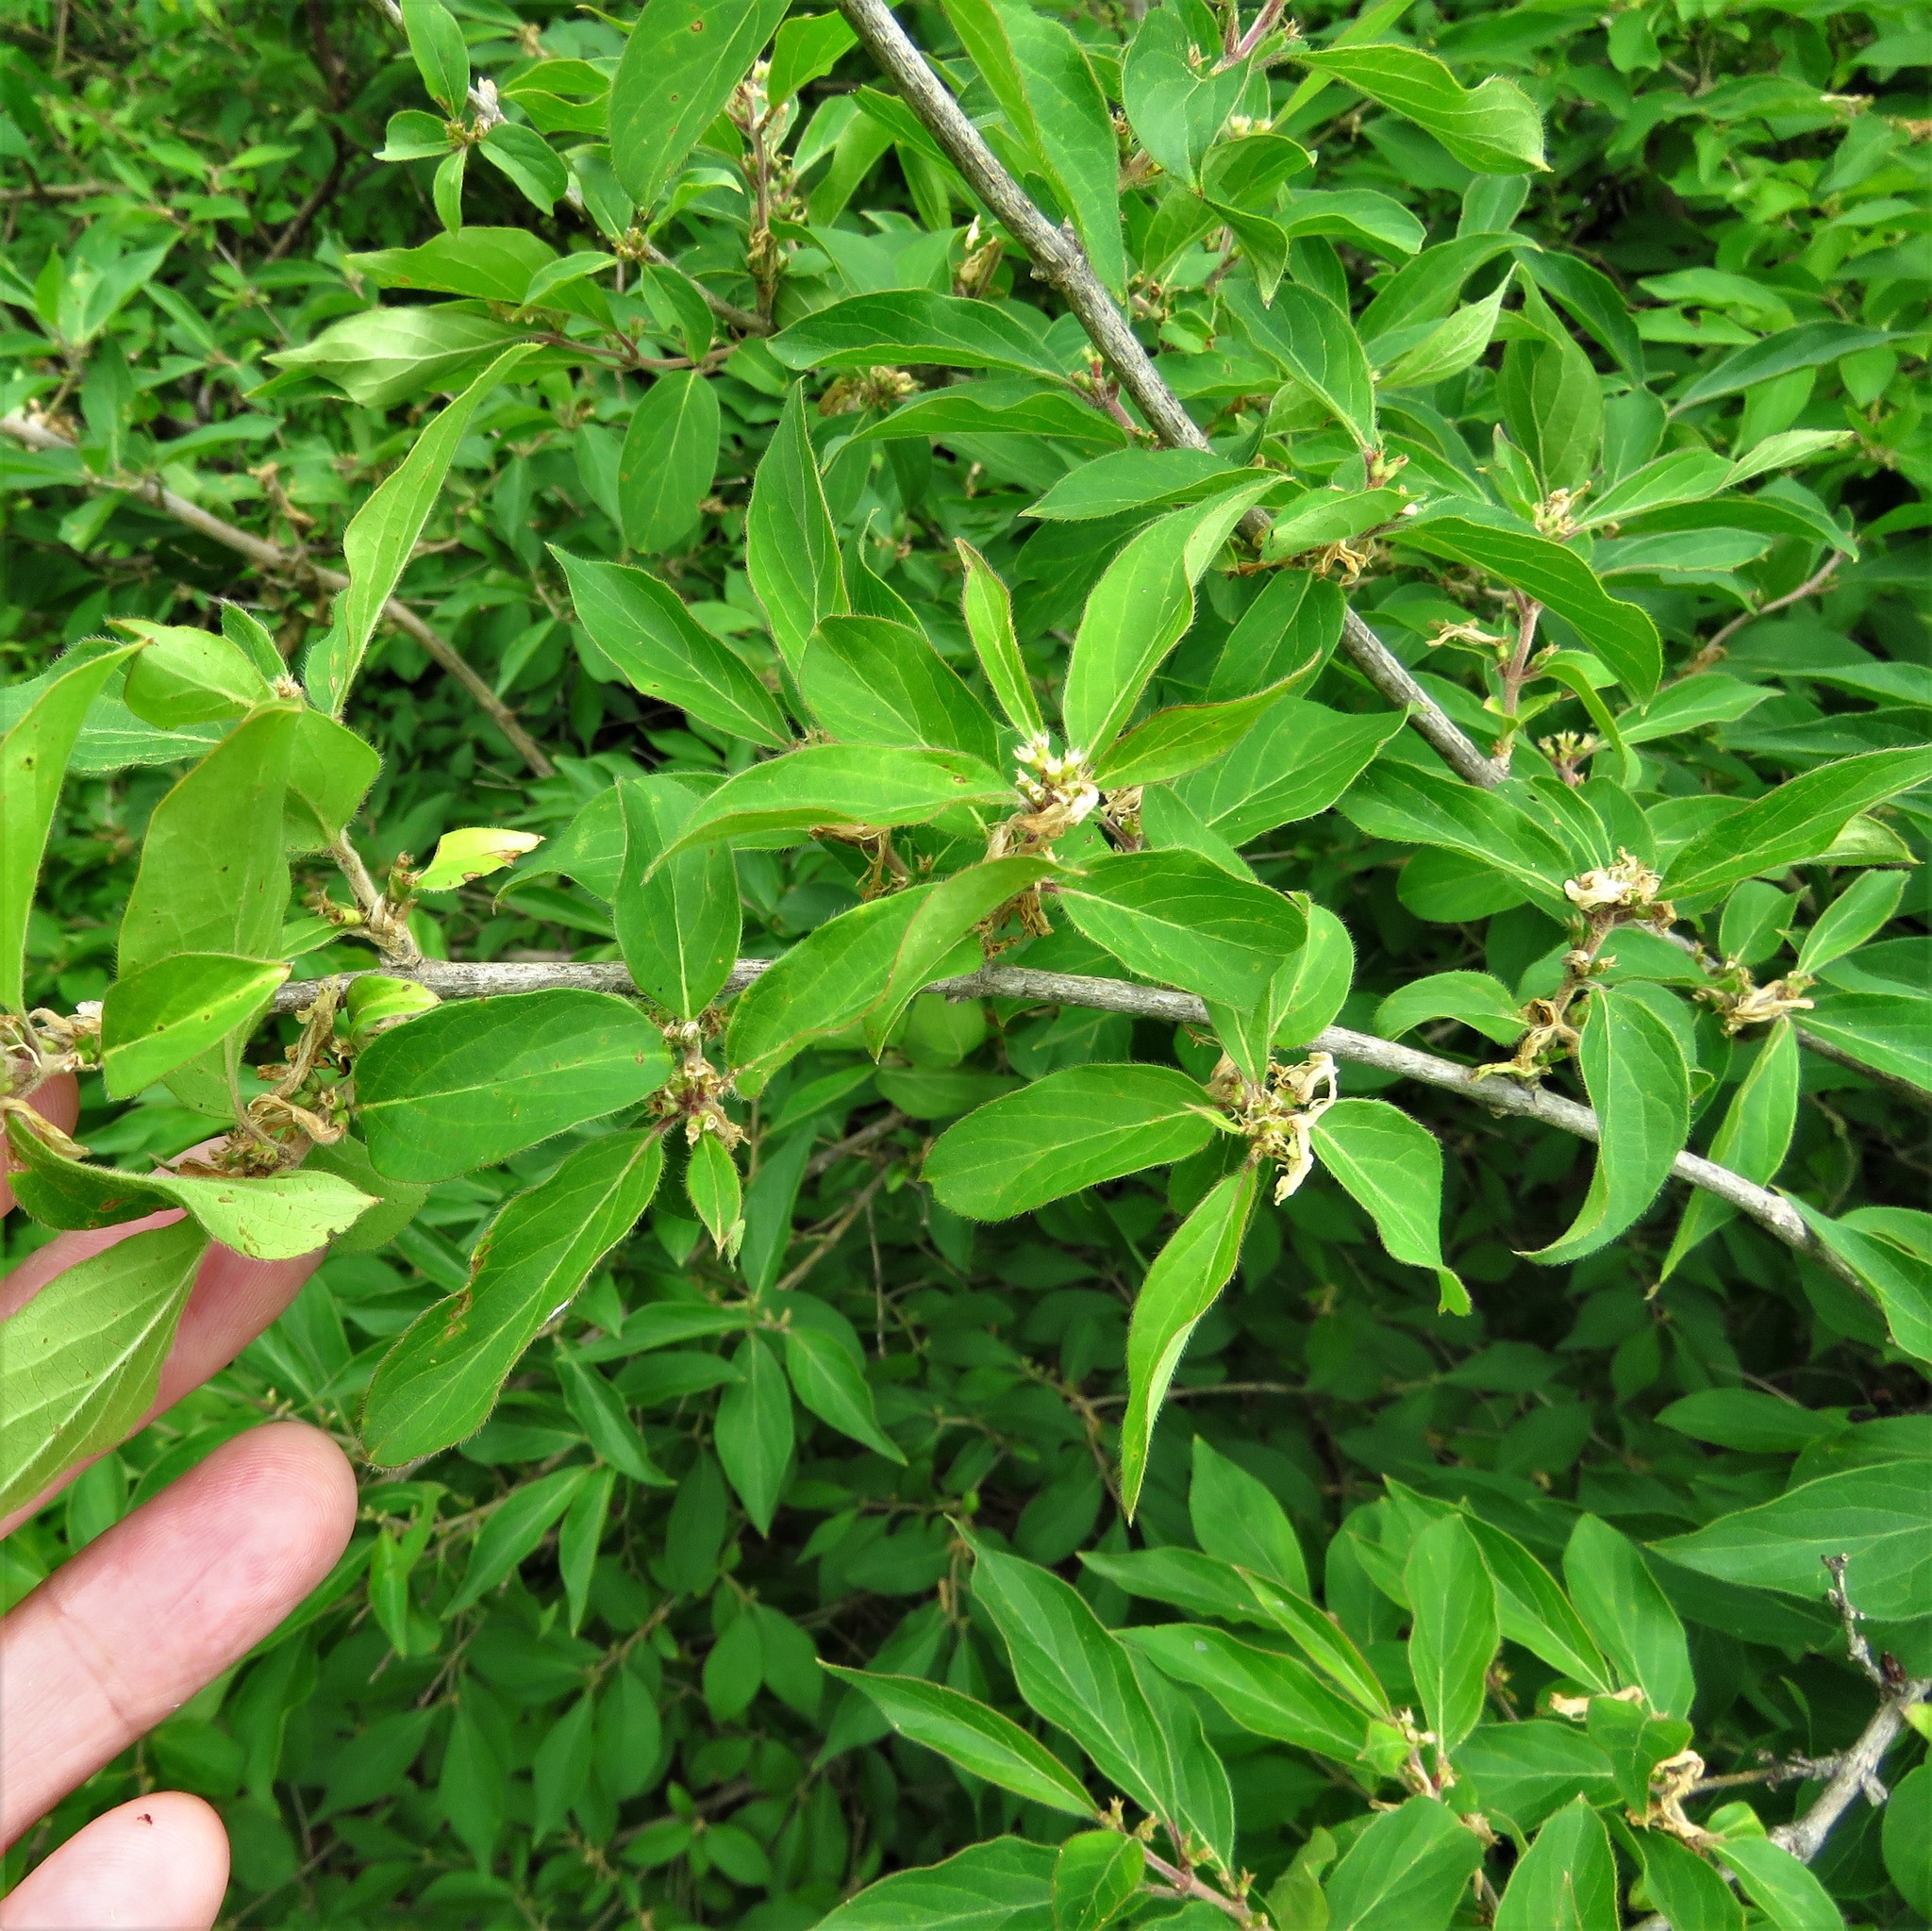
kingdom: Plantae
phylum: Tracheophyta
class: Magnoliopsida
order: Dipsacales
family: Caprifoliaceae
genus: Lonicera
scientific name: Lonicera maackii
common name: Amur honeysuckle
